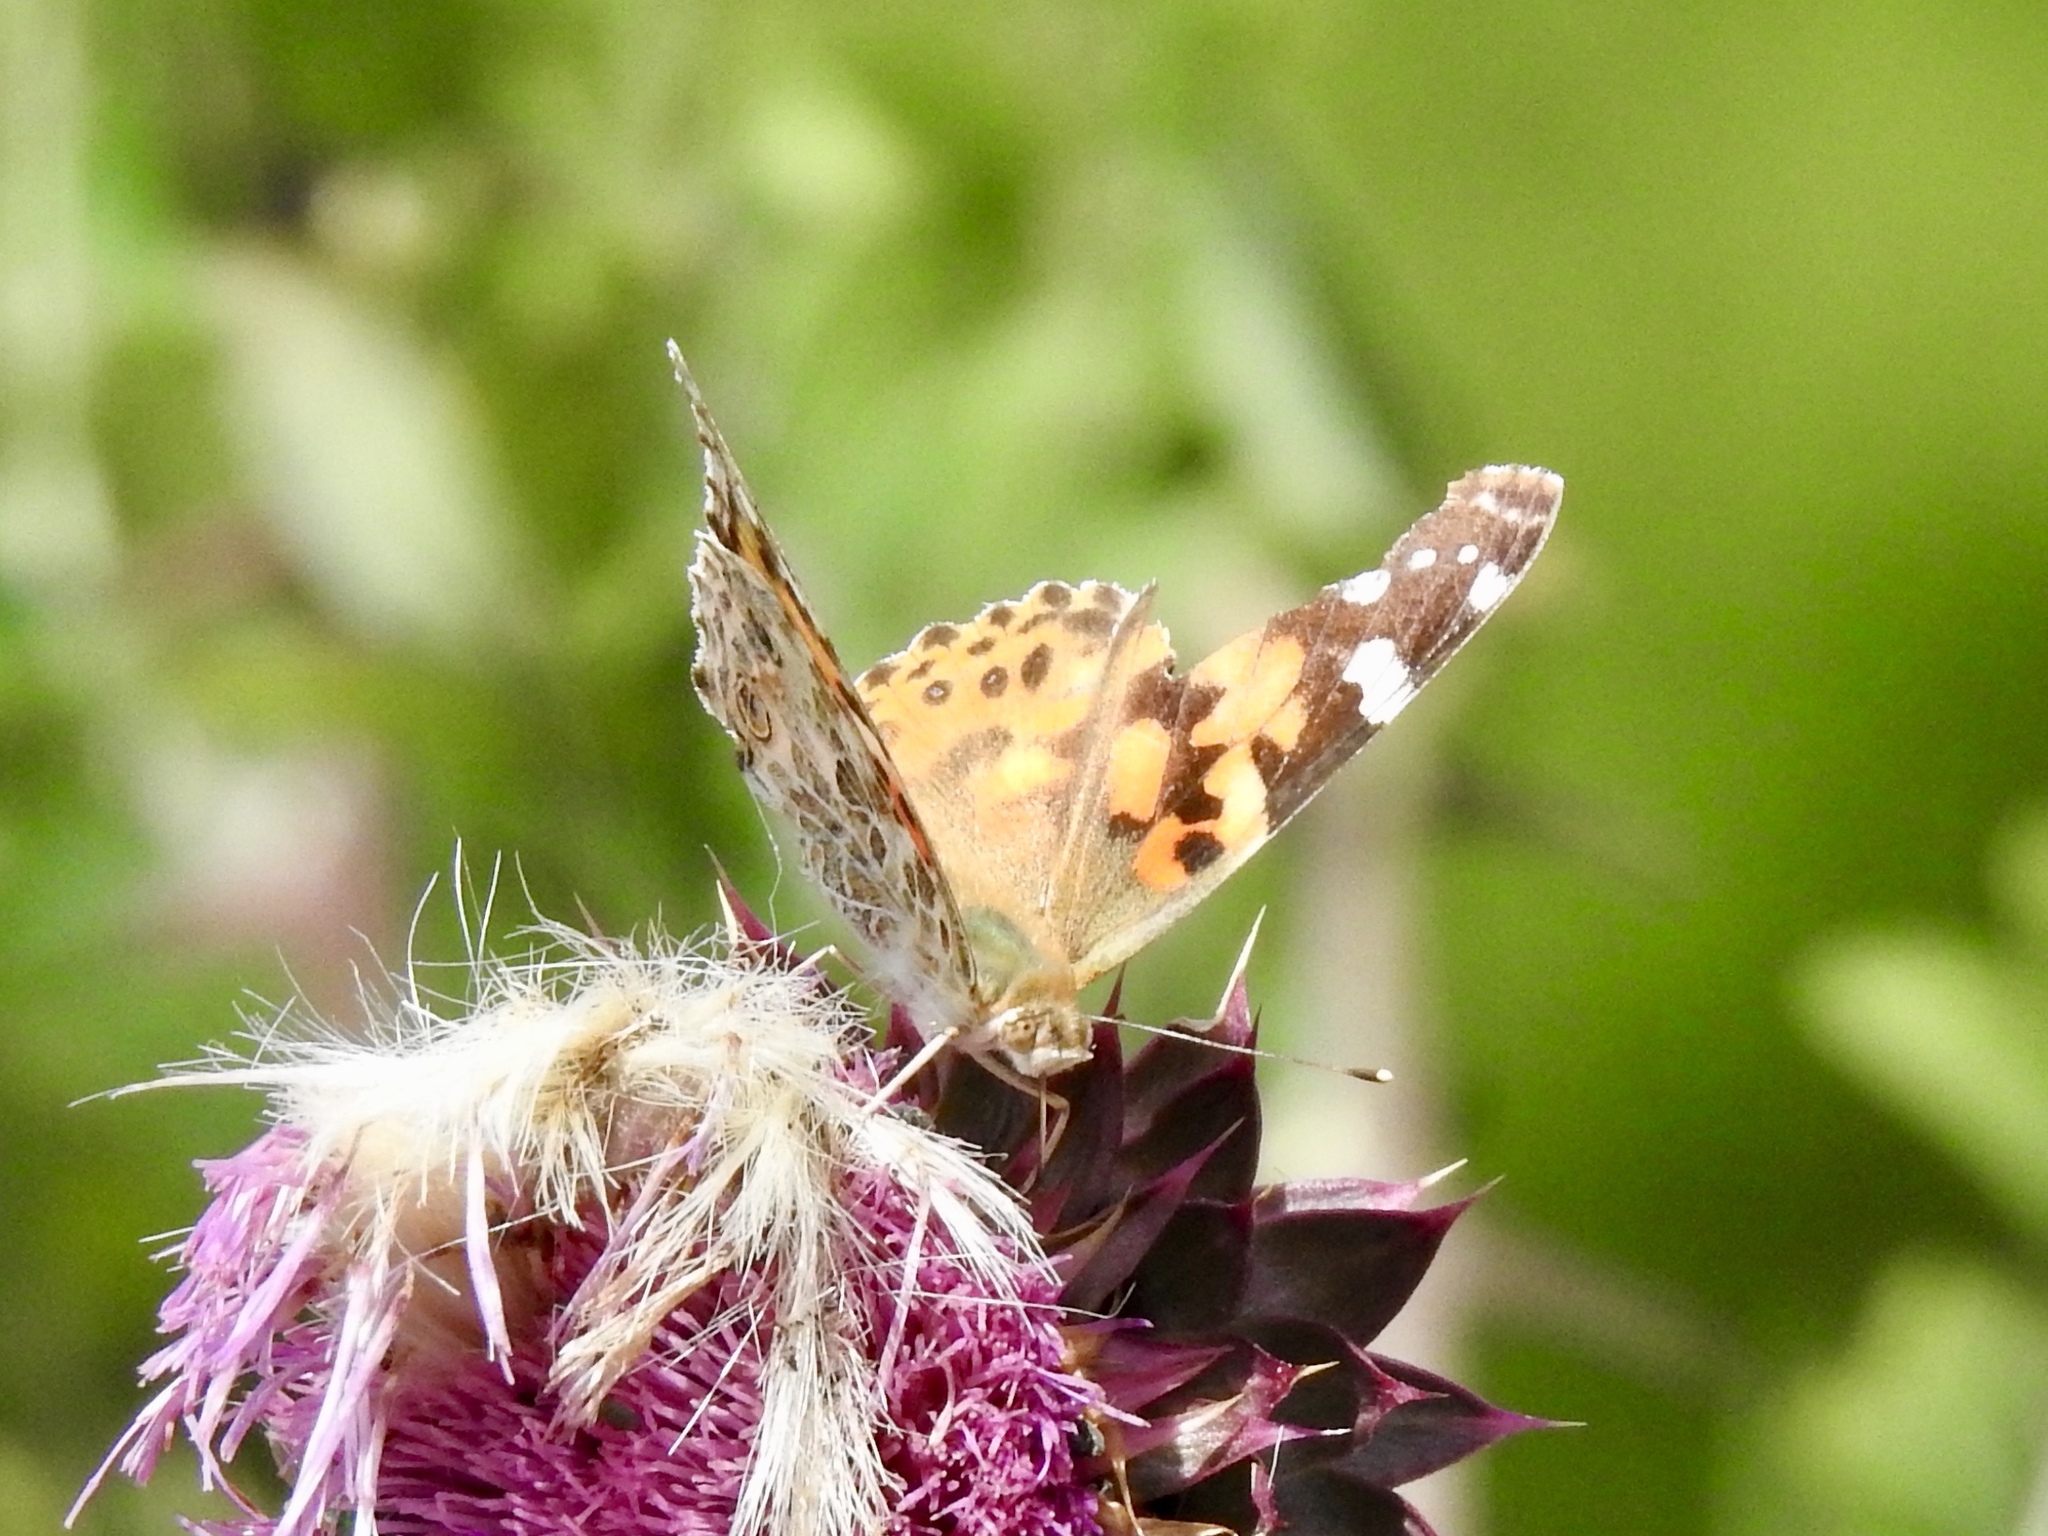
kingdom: Animalia
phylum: Arthropoda
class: Insecta
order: Lepidoptera
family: Nymphalidae
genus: Vanessa
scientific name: Vanessa cardui
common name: Painted lady
